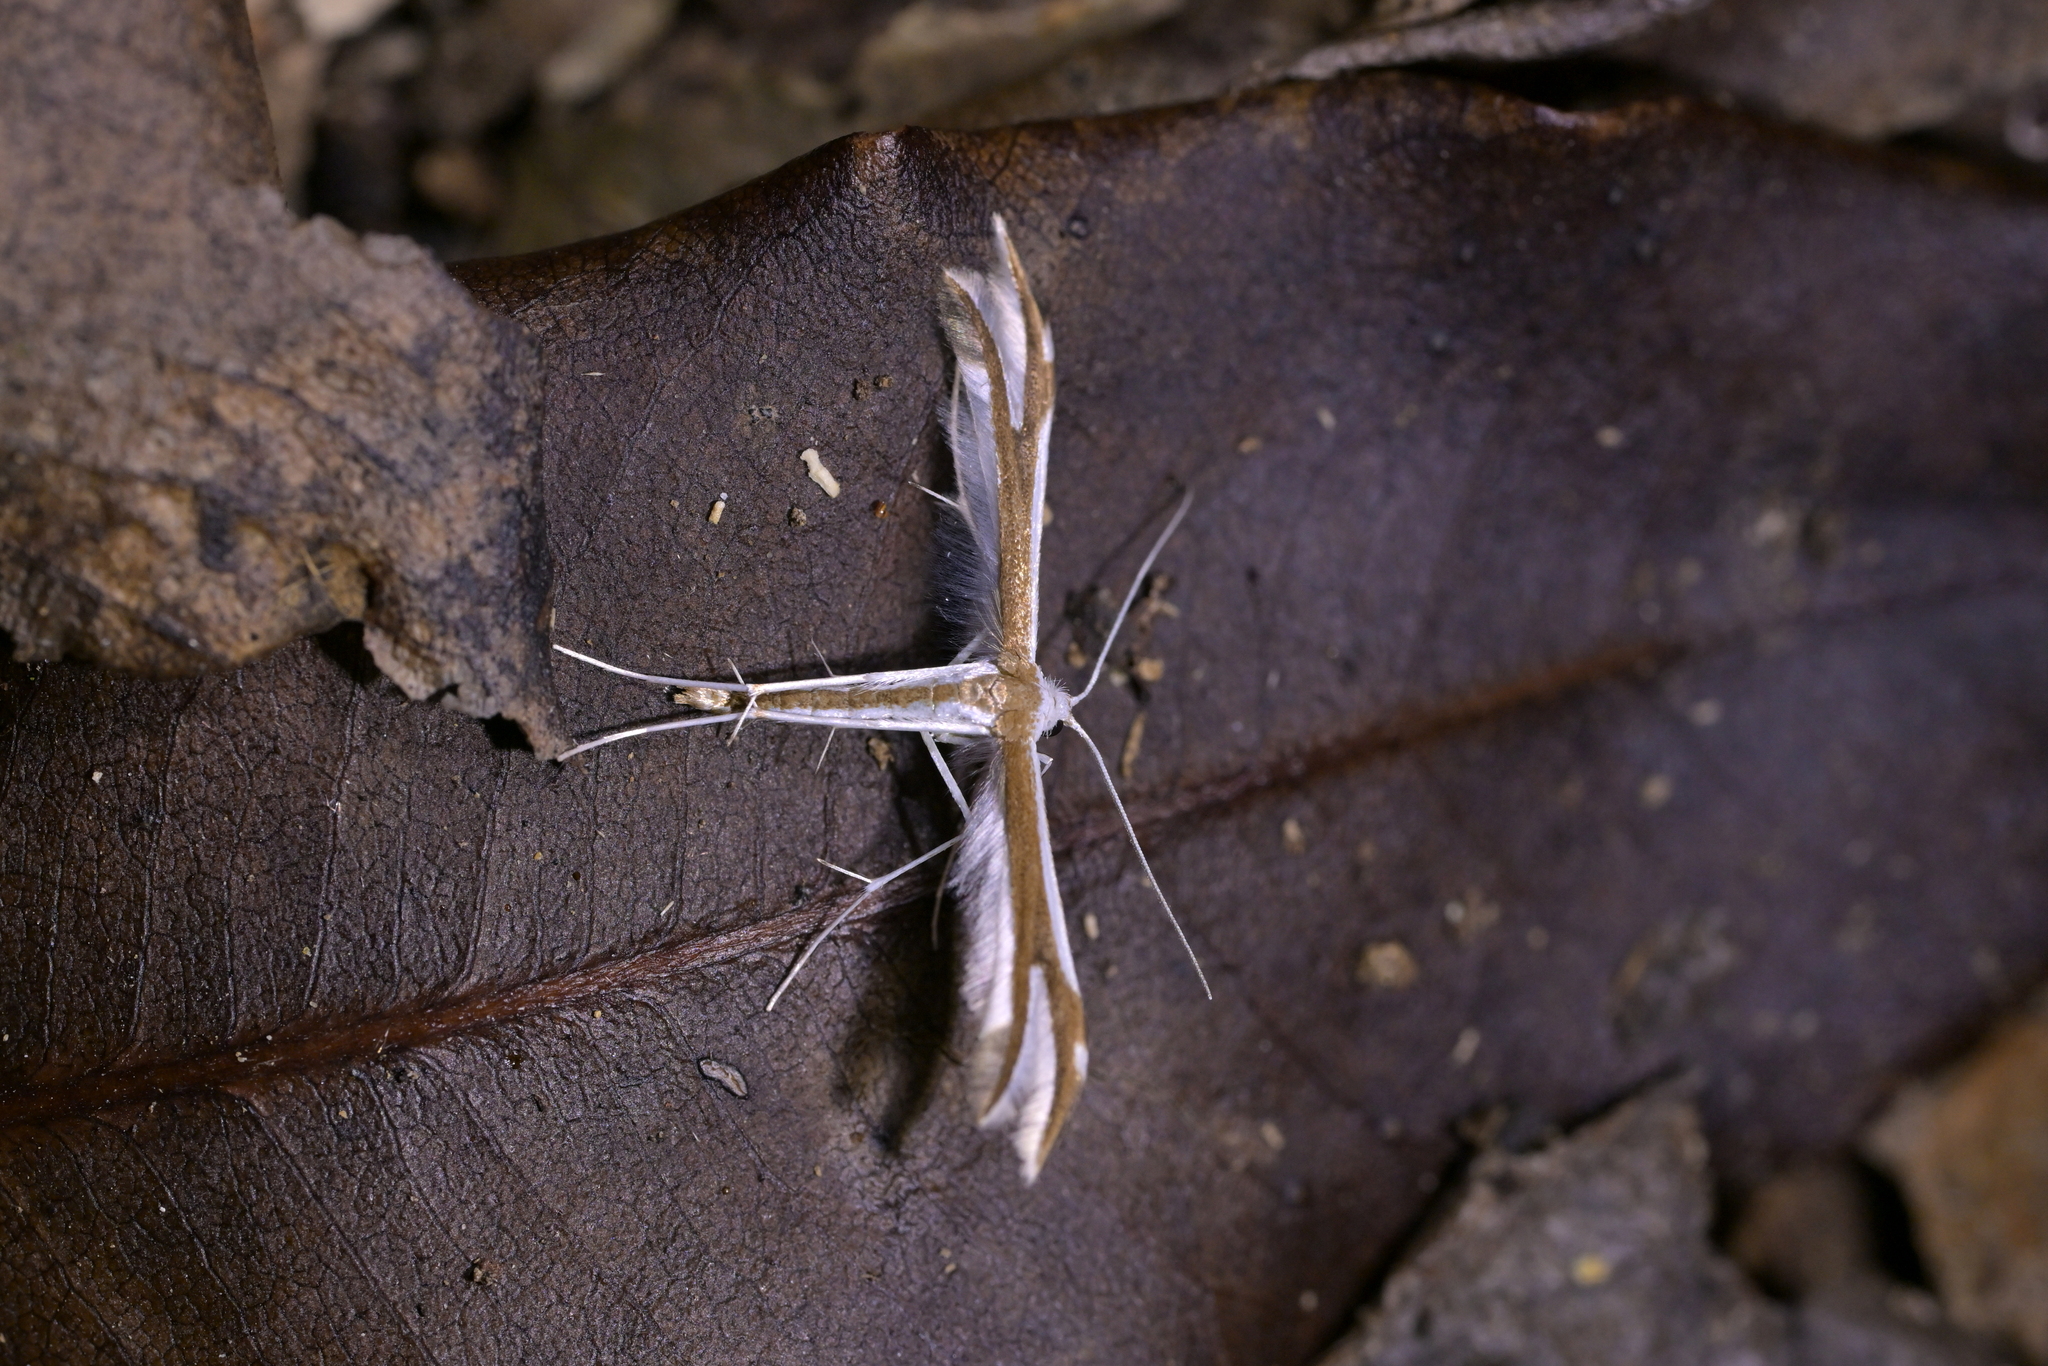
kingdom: Animalia
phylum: Arthropoda
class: Insecta
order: Lepidoptera
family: Pterophoridae
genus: Pterophorus
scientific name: Pterophorus furcatalis
